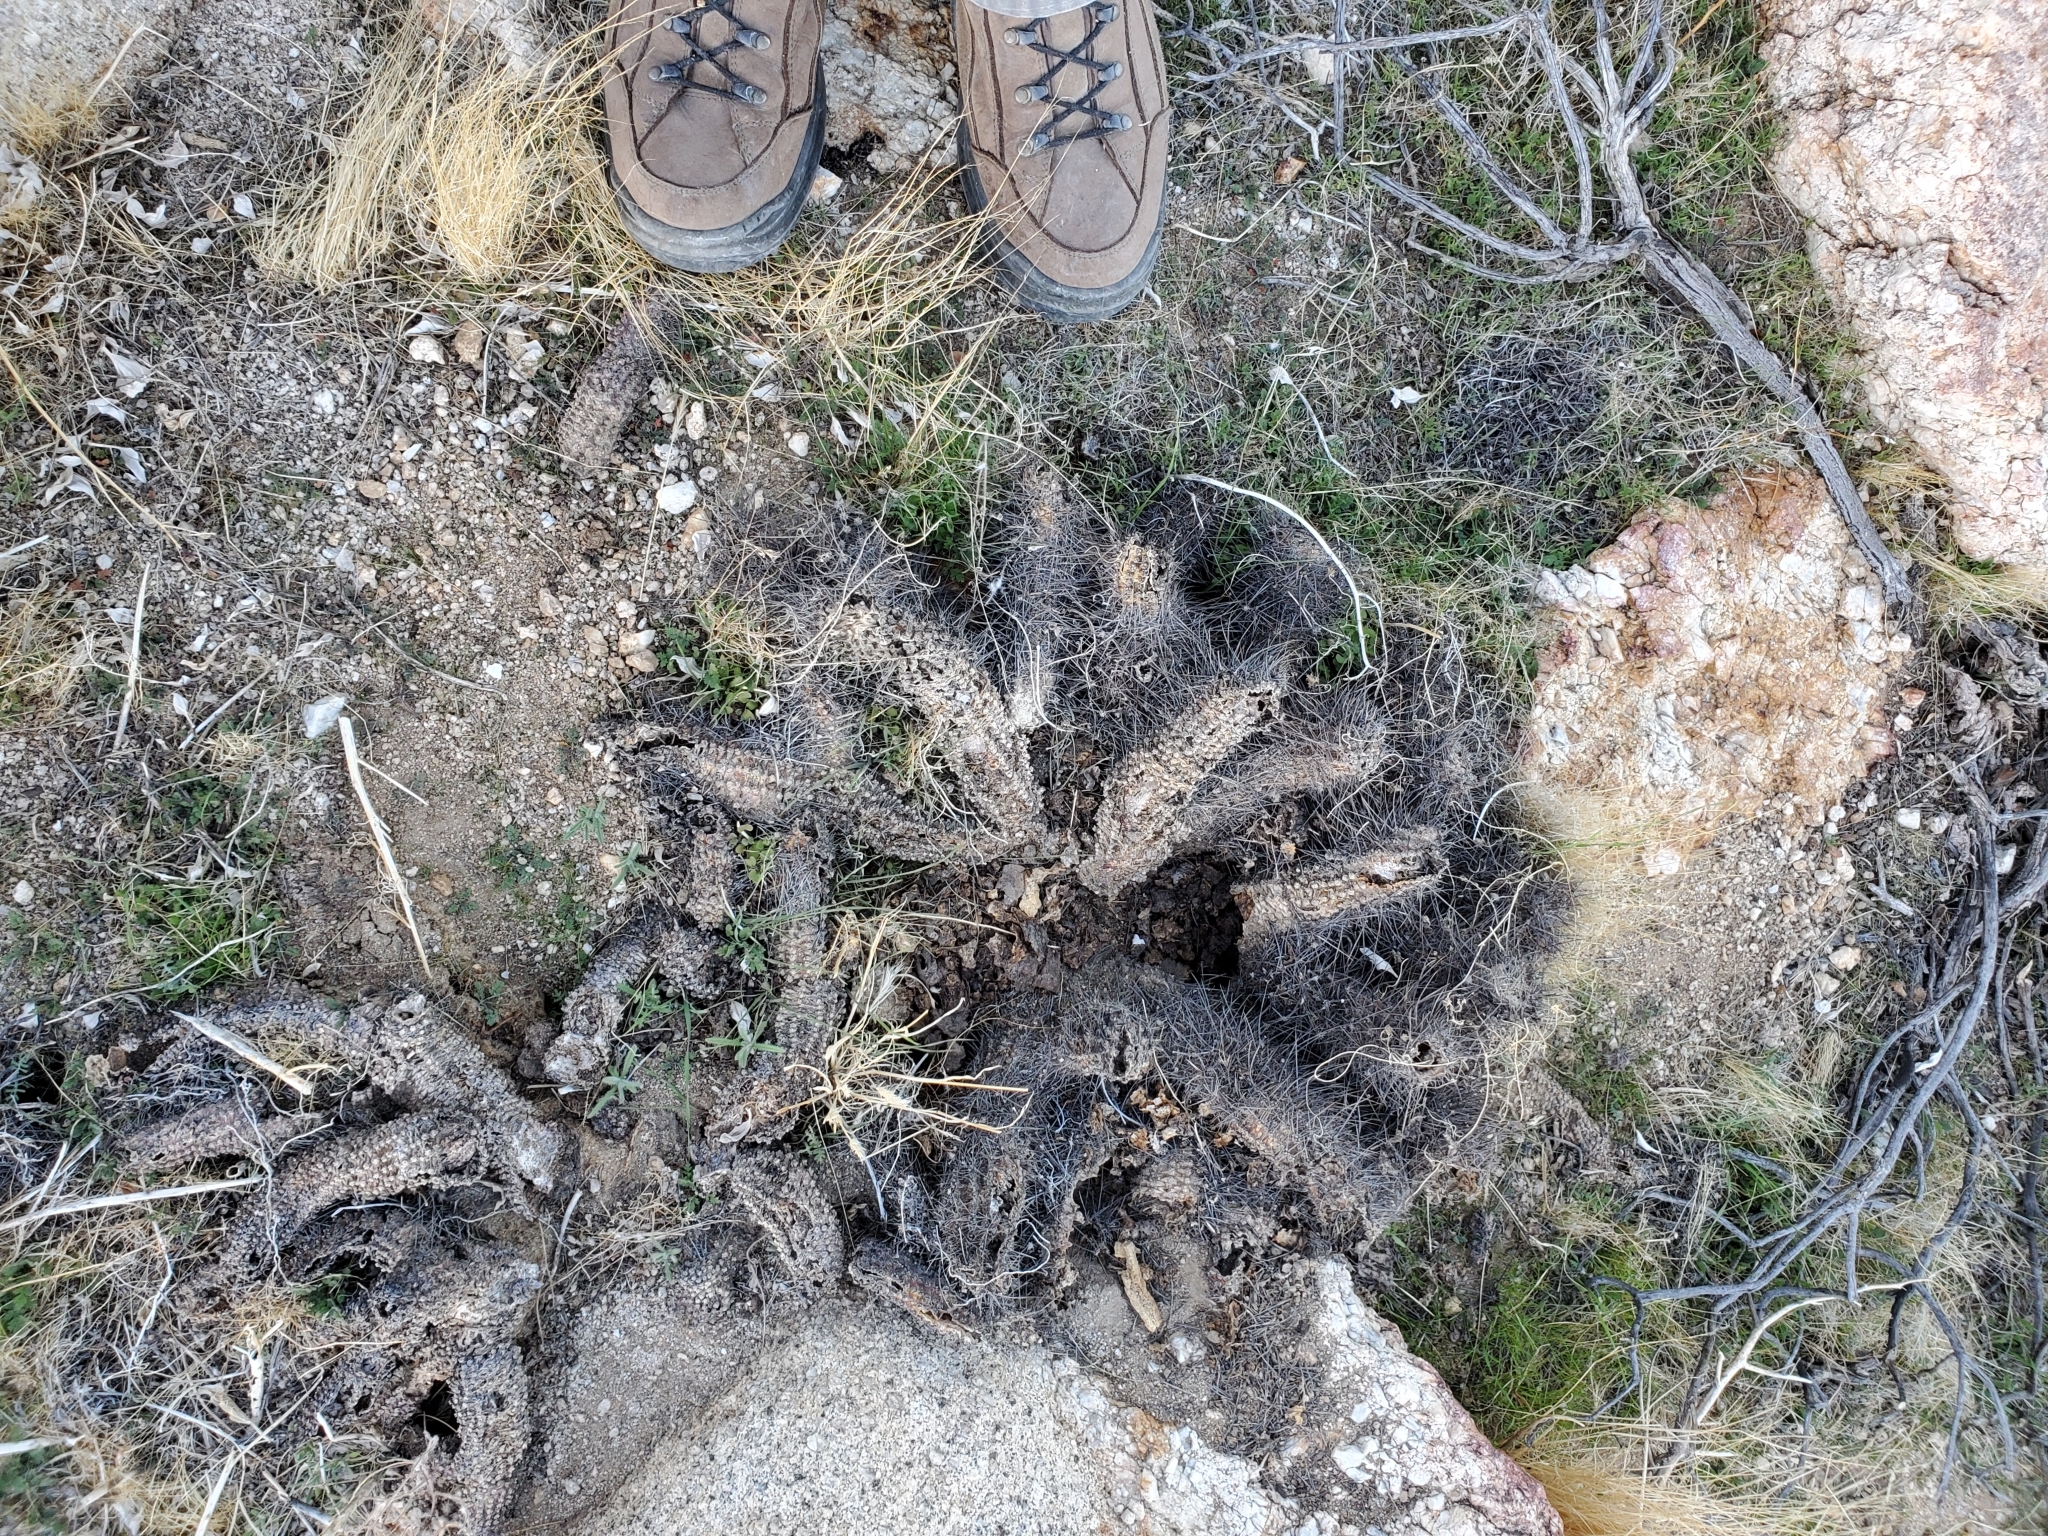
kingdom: Plantae
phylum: Tracheophyta
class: Magnoliopsida
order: Caryophyllales
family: Cactaceae
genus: Echinocereus
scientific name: Echinocereus engelmannii
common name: Engelmann's hedgehog cactus
